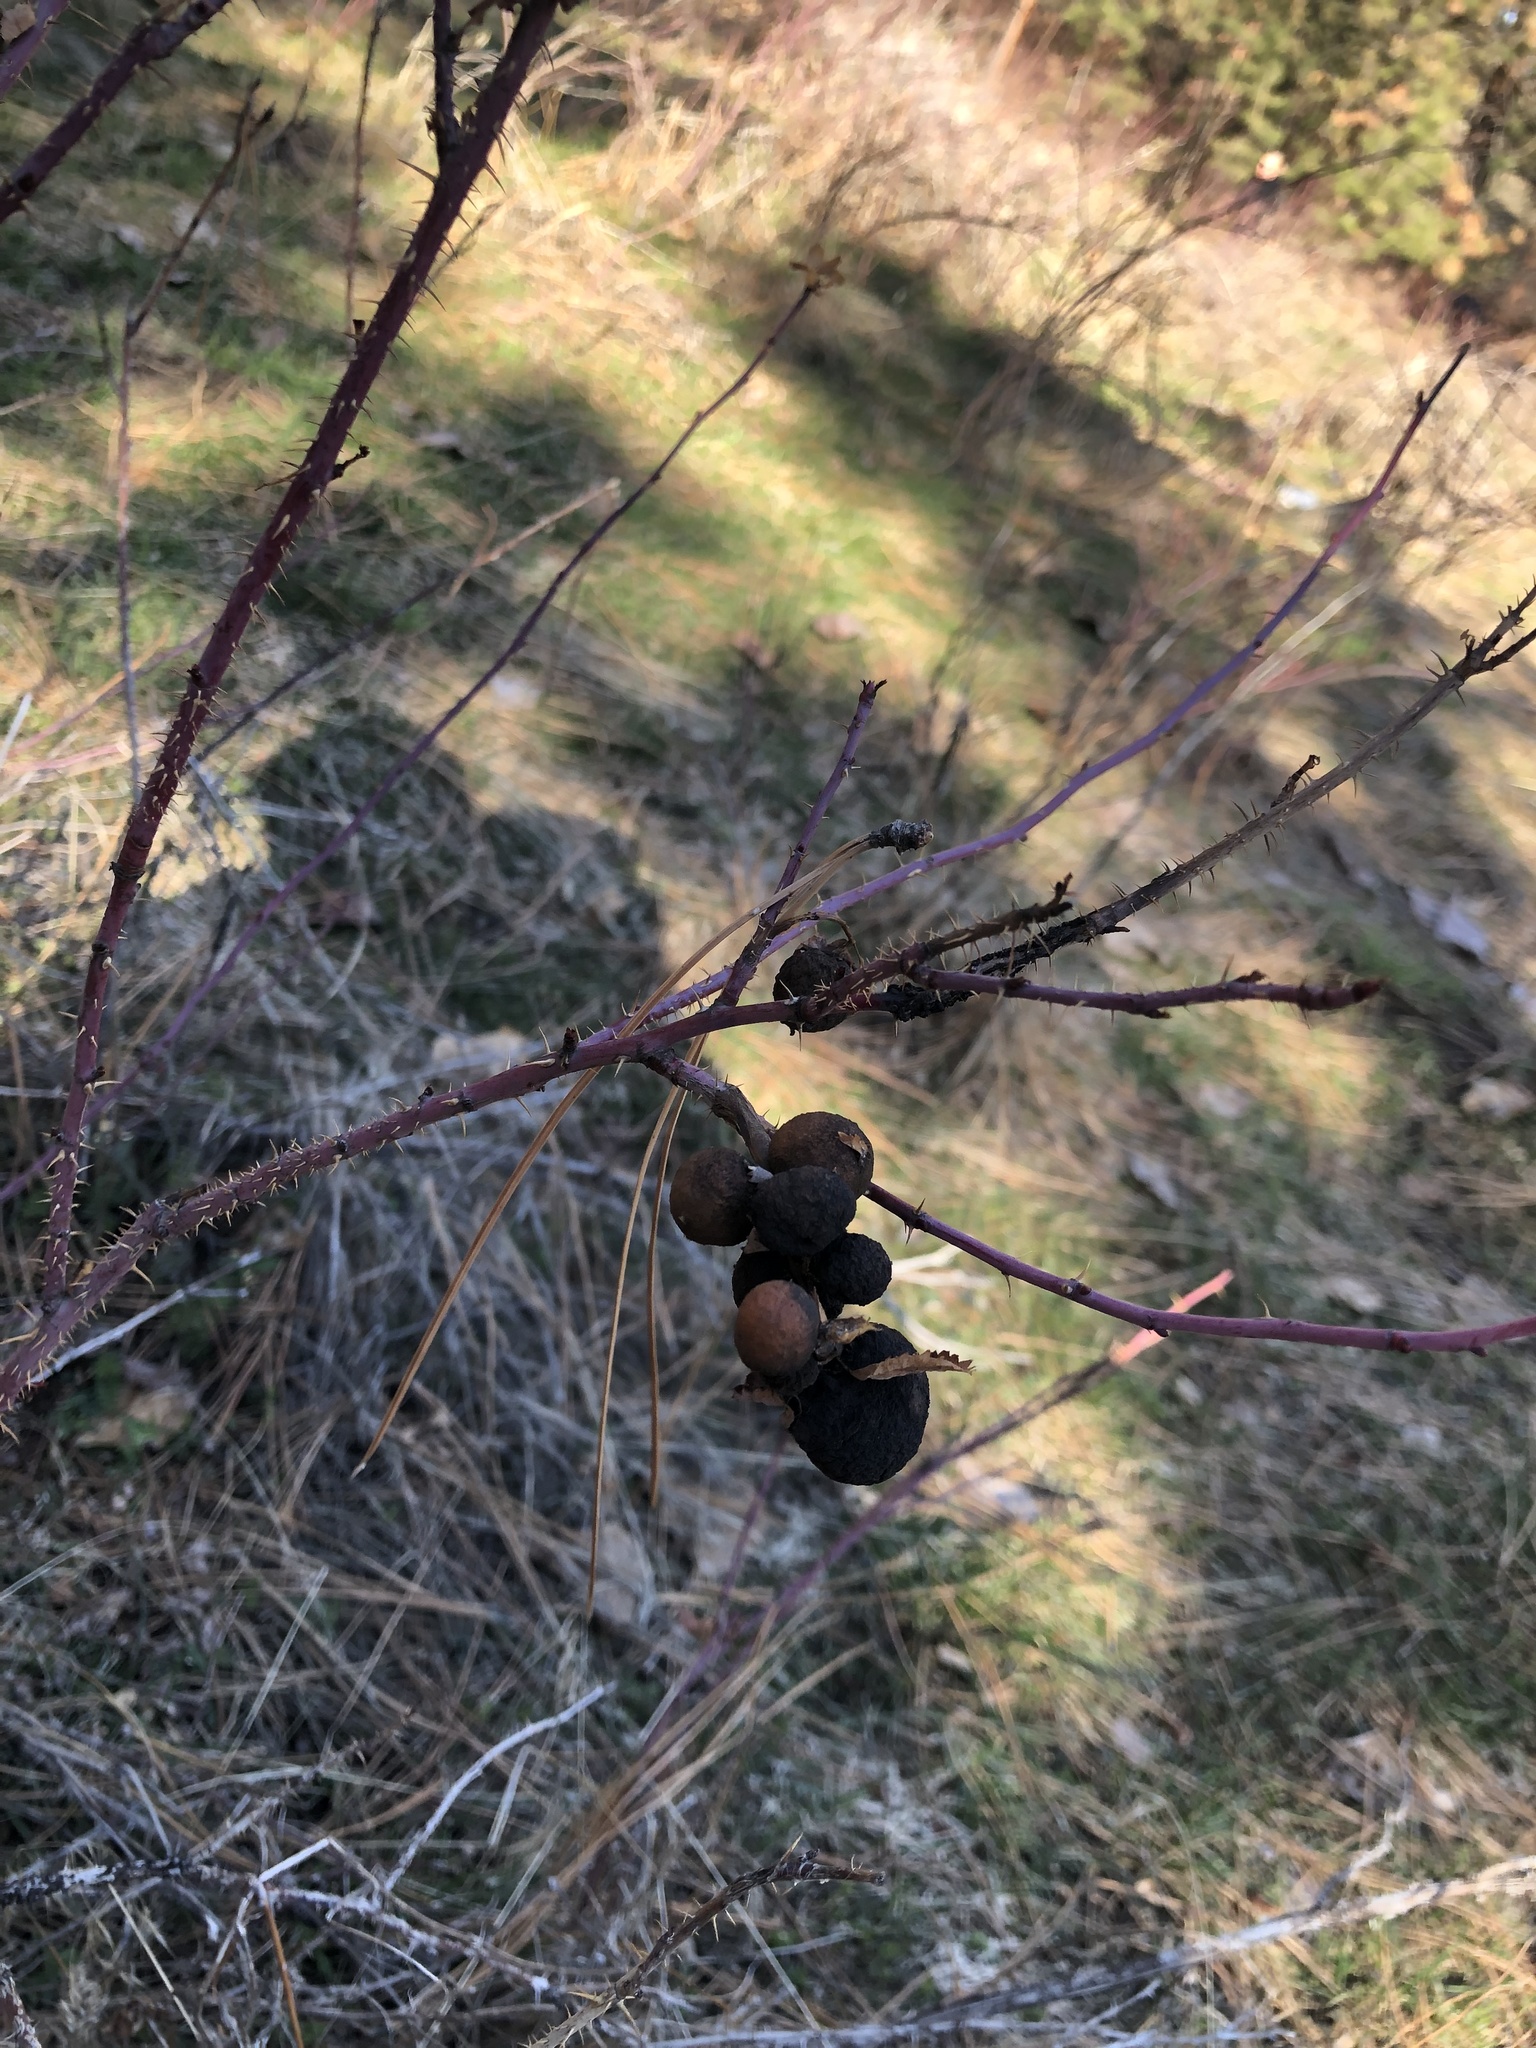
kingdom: Animalia
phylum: Arthropoda
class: Insecta
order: Hymenoptera
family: Cynipidae
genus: Diplolepis
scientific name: Diplolepis variabilis
